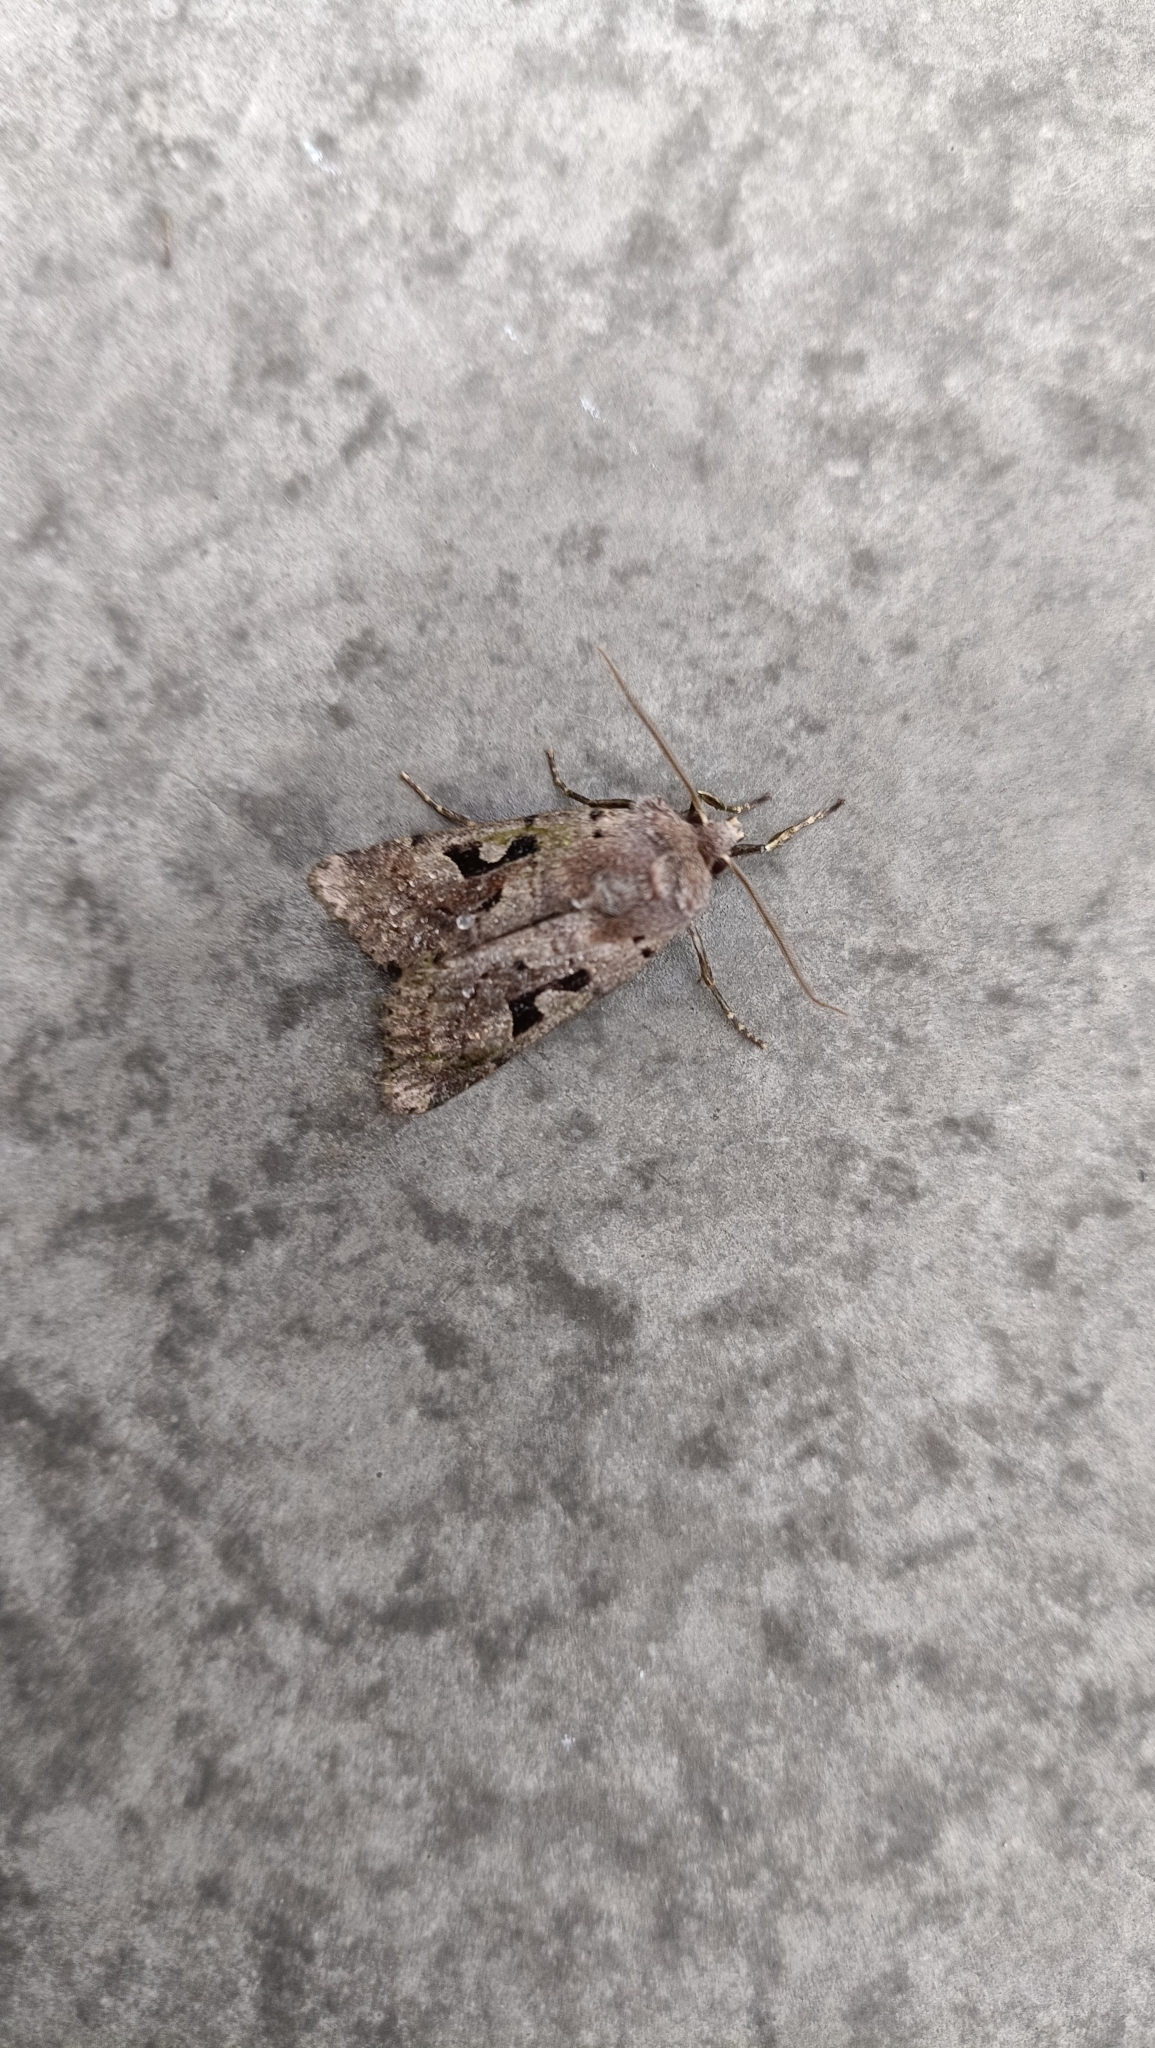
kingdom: Animalia
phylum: Arthropoda
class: Insecta
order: Lepidoptera
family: Noctuidae
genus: Orthosia
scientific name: Orthosia gothica
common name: Hebrew character
